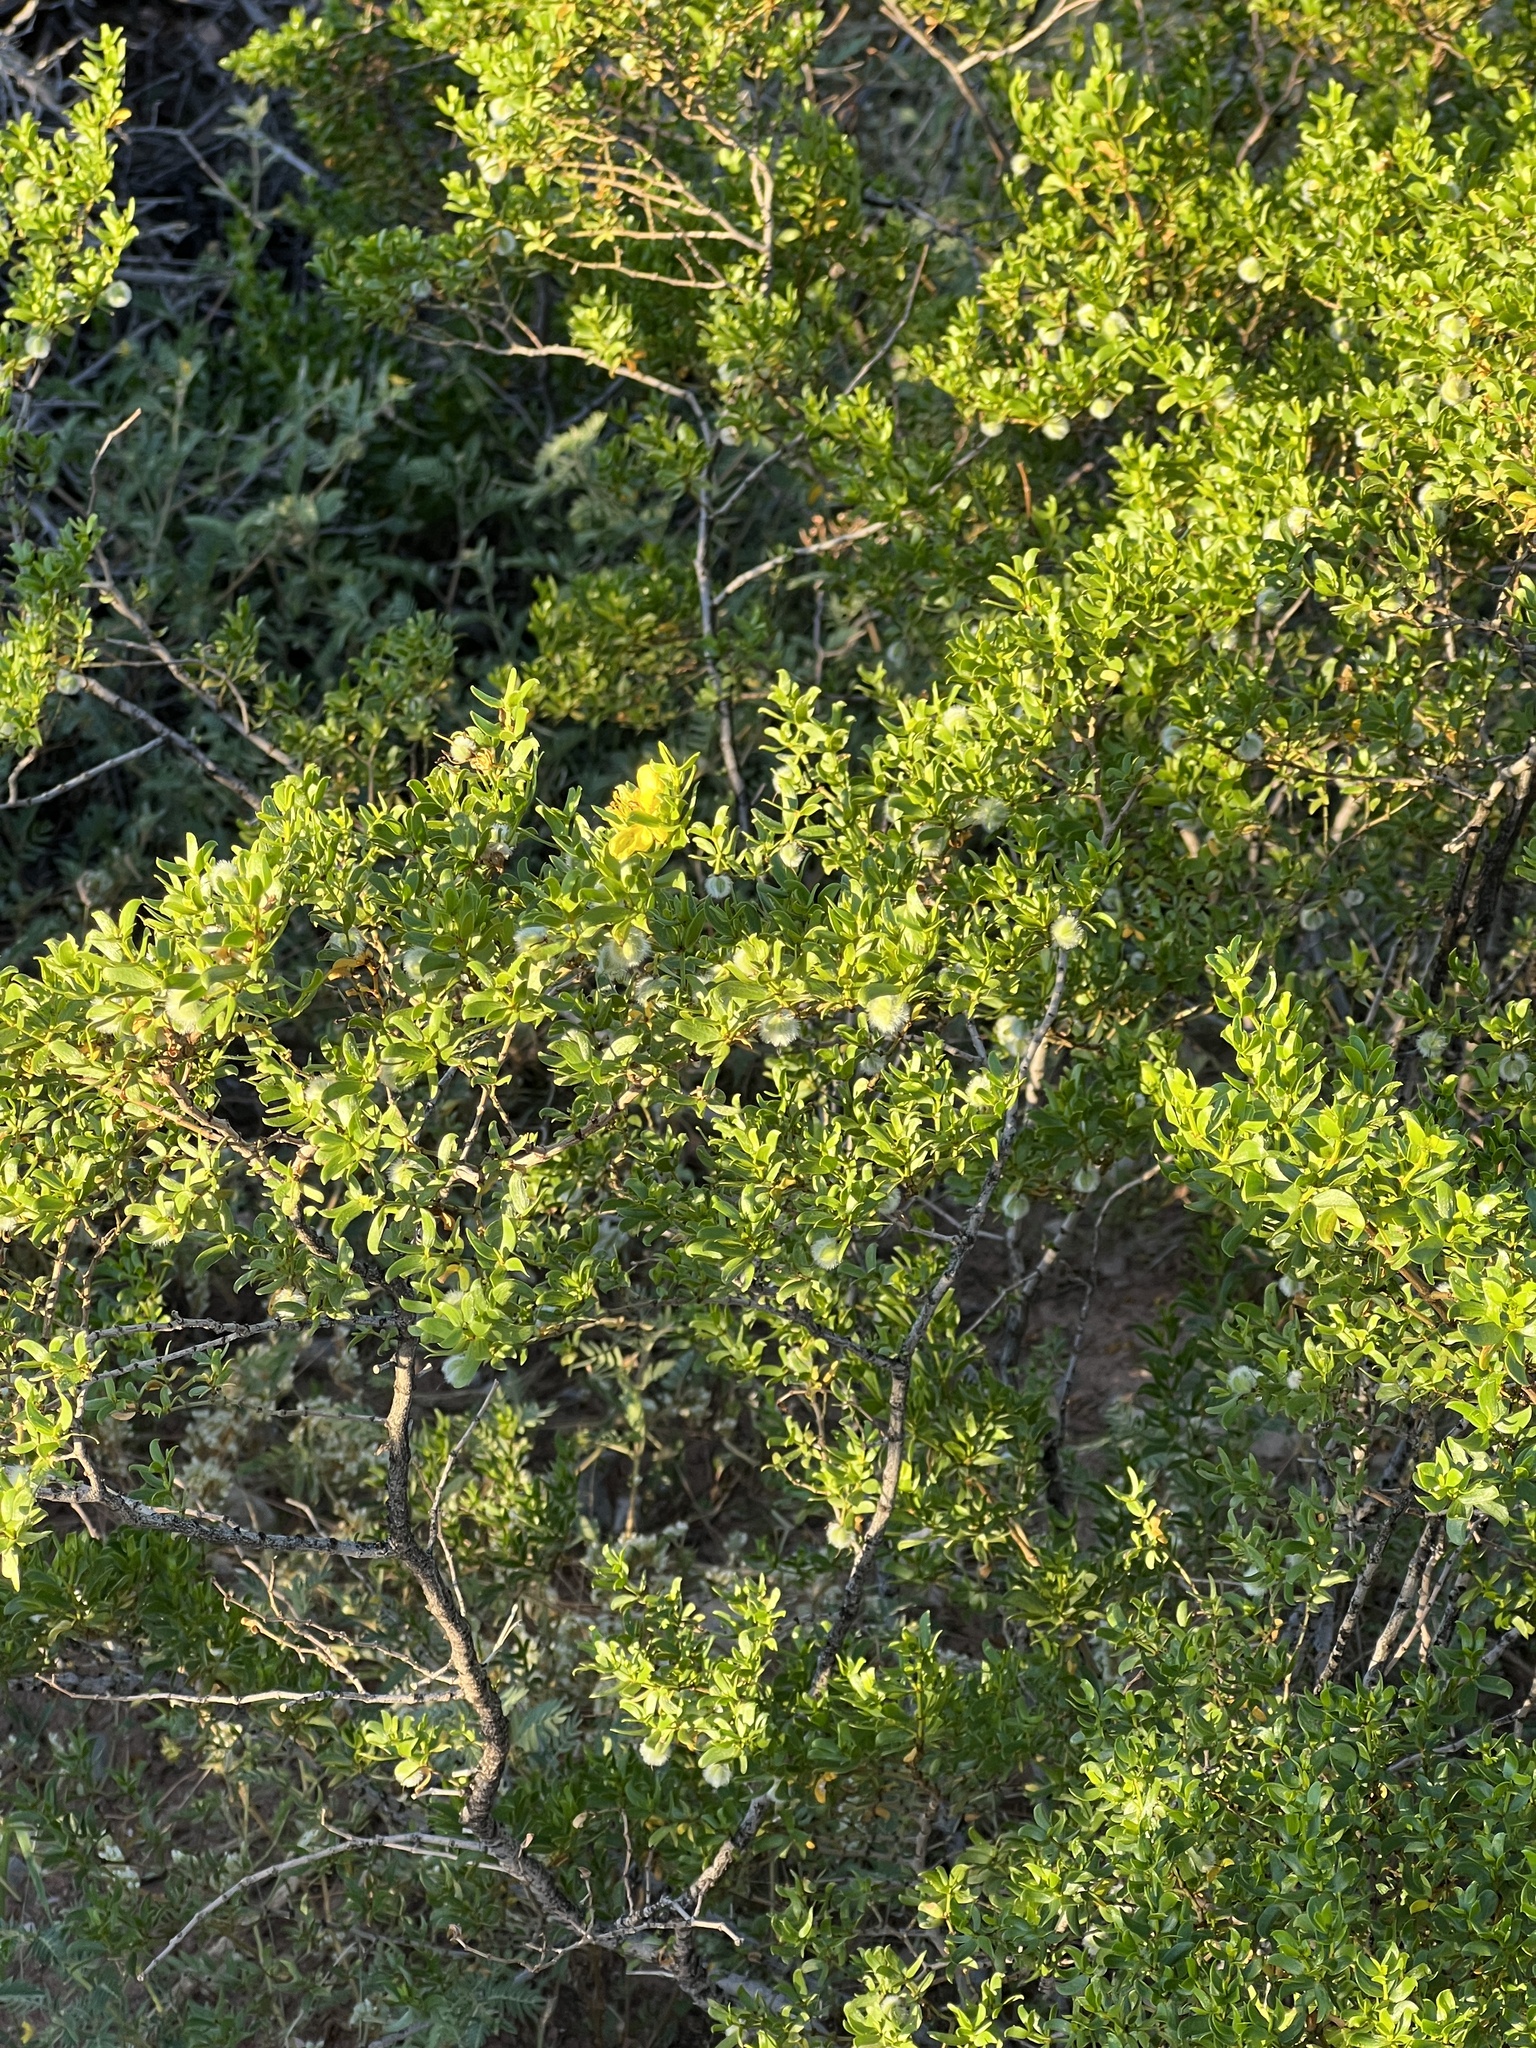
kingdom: Plantae
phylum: Tracheophyta
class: Magnoliopsida
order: Zygophyllales
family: Zygophyllaceae
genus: Larrea
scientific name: Larrea tridentata
